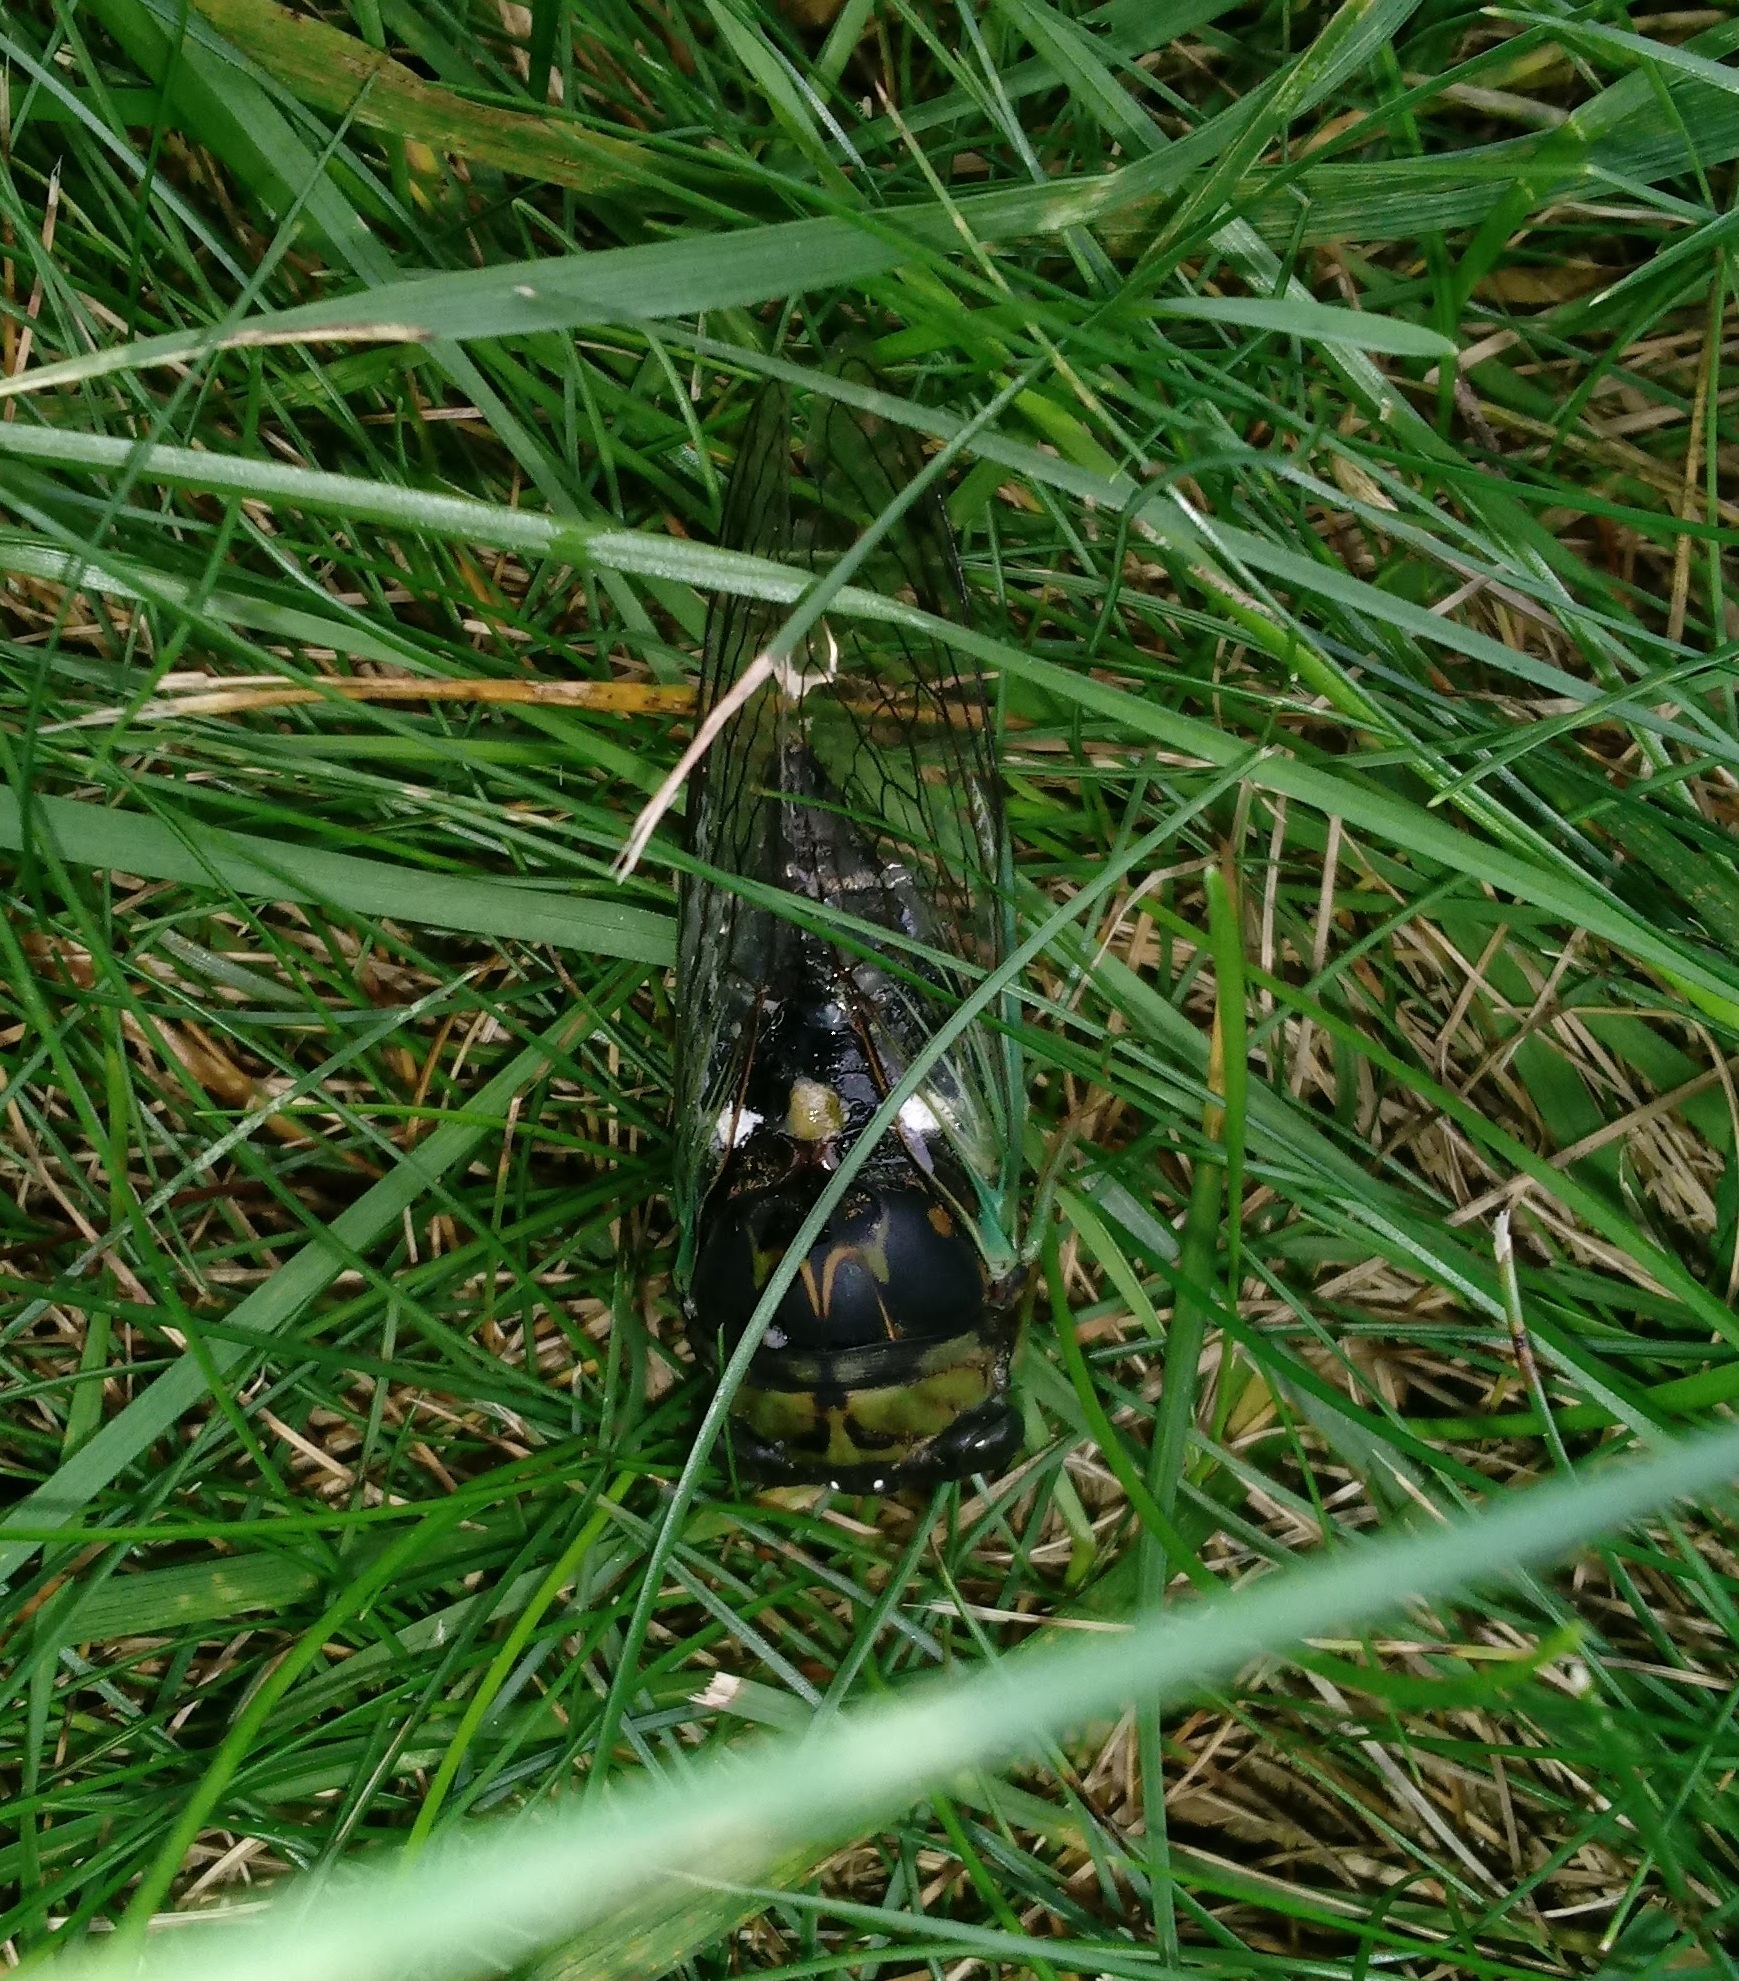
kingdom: Animalia
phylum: Arthropoda
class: Insecta
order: Hemiptera
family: Cicadidae
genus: Neotibicen
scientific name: Neotibicen tibicen
